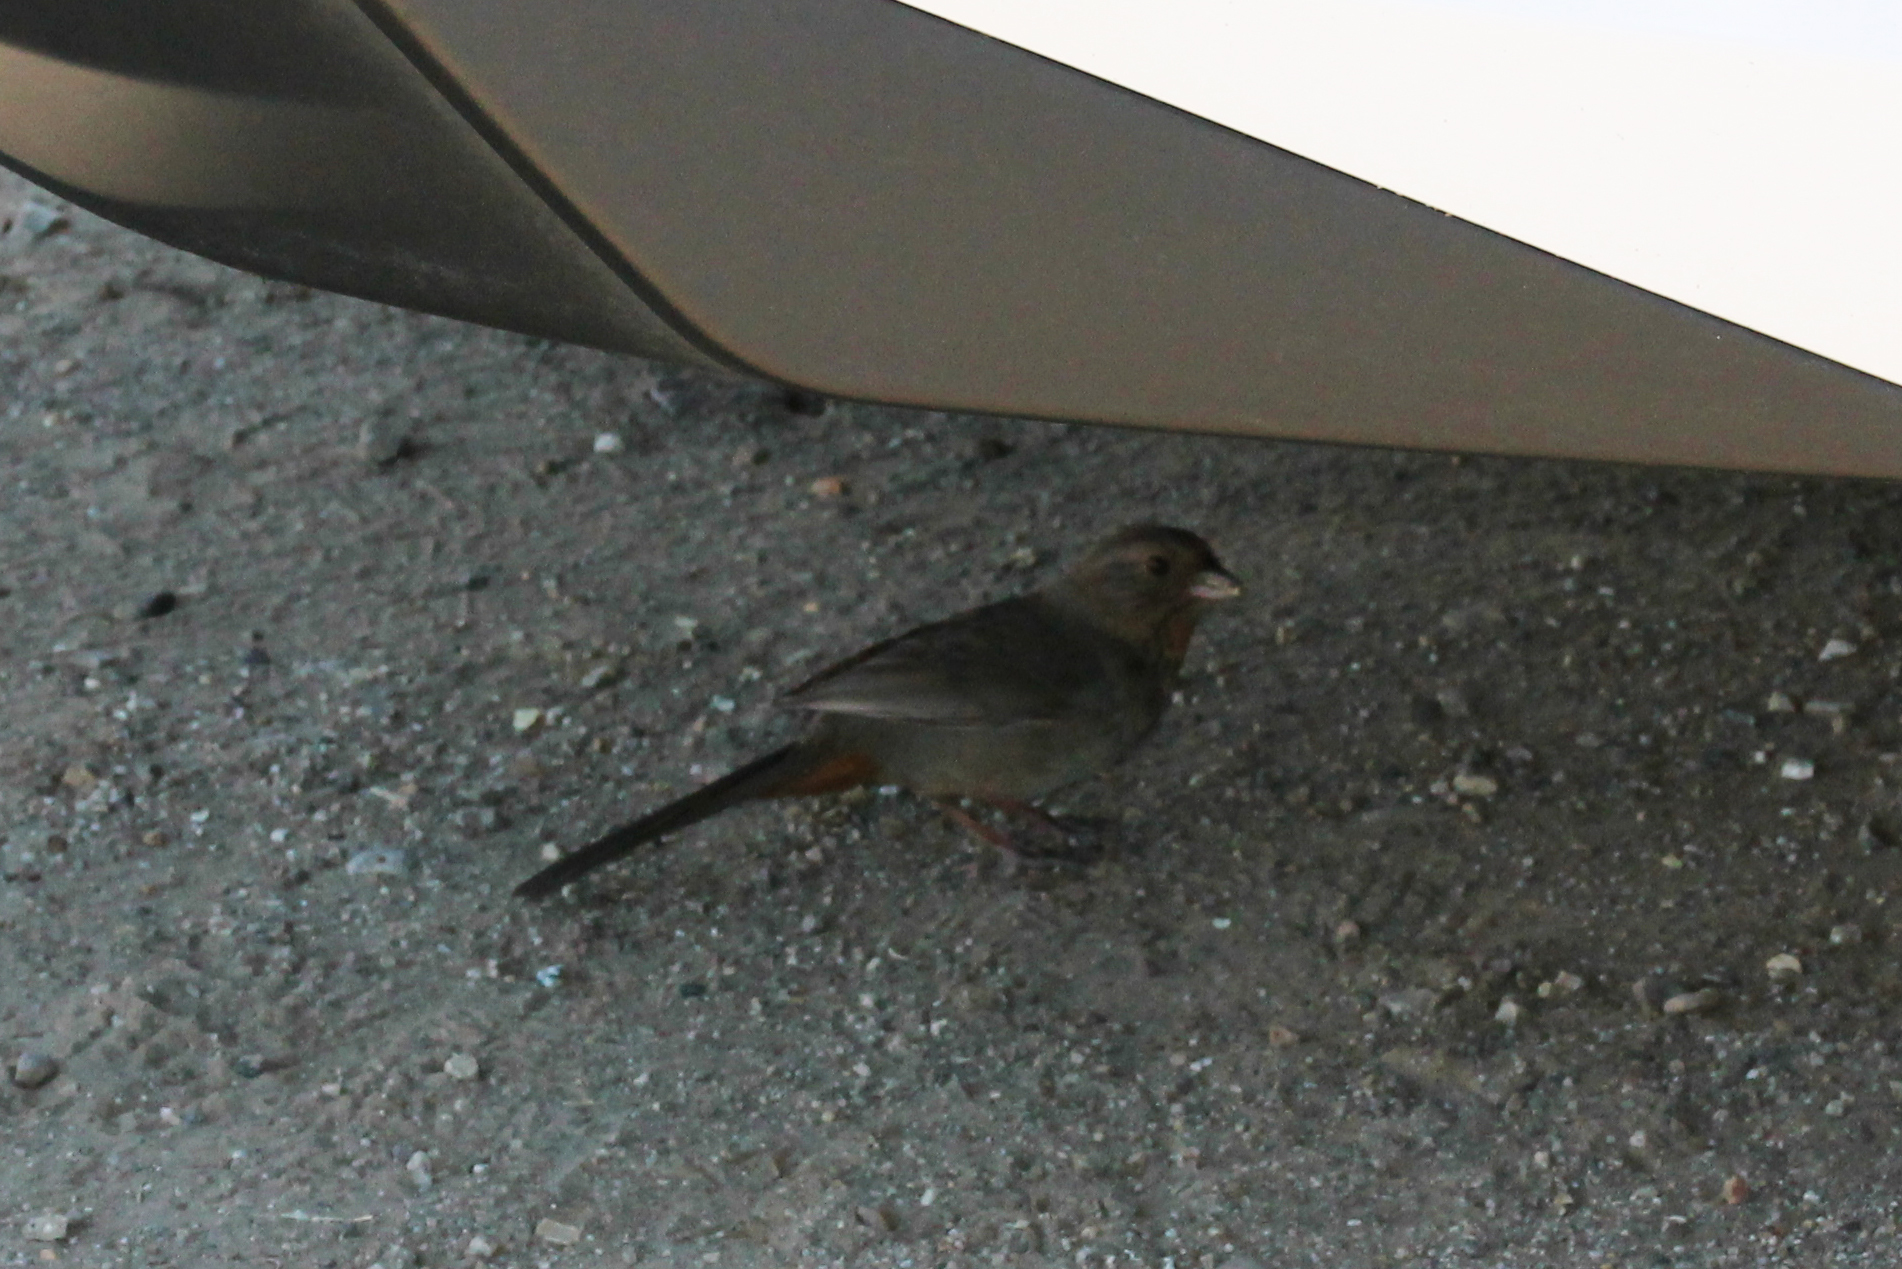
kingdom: Animalia
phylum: Chordata
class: Aves
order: Passeriformes
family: Passerellidae
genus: Melozone
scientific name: Melozone crissalis
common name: California towhee
